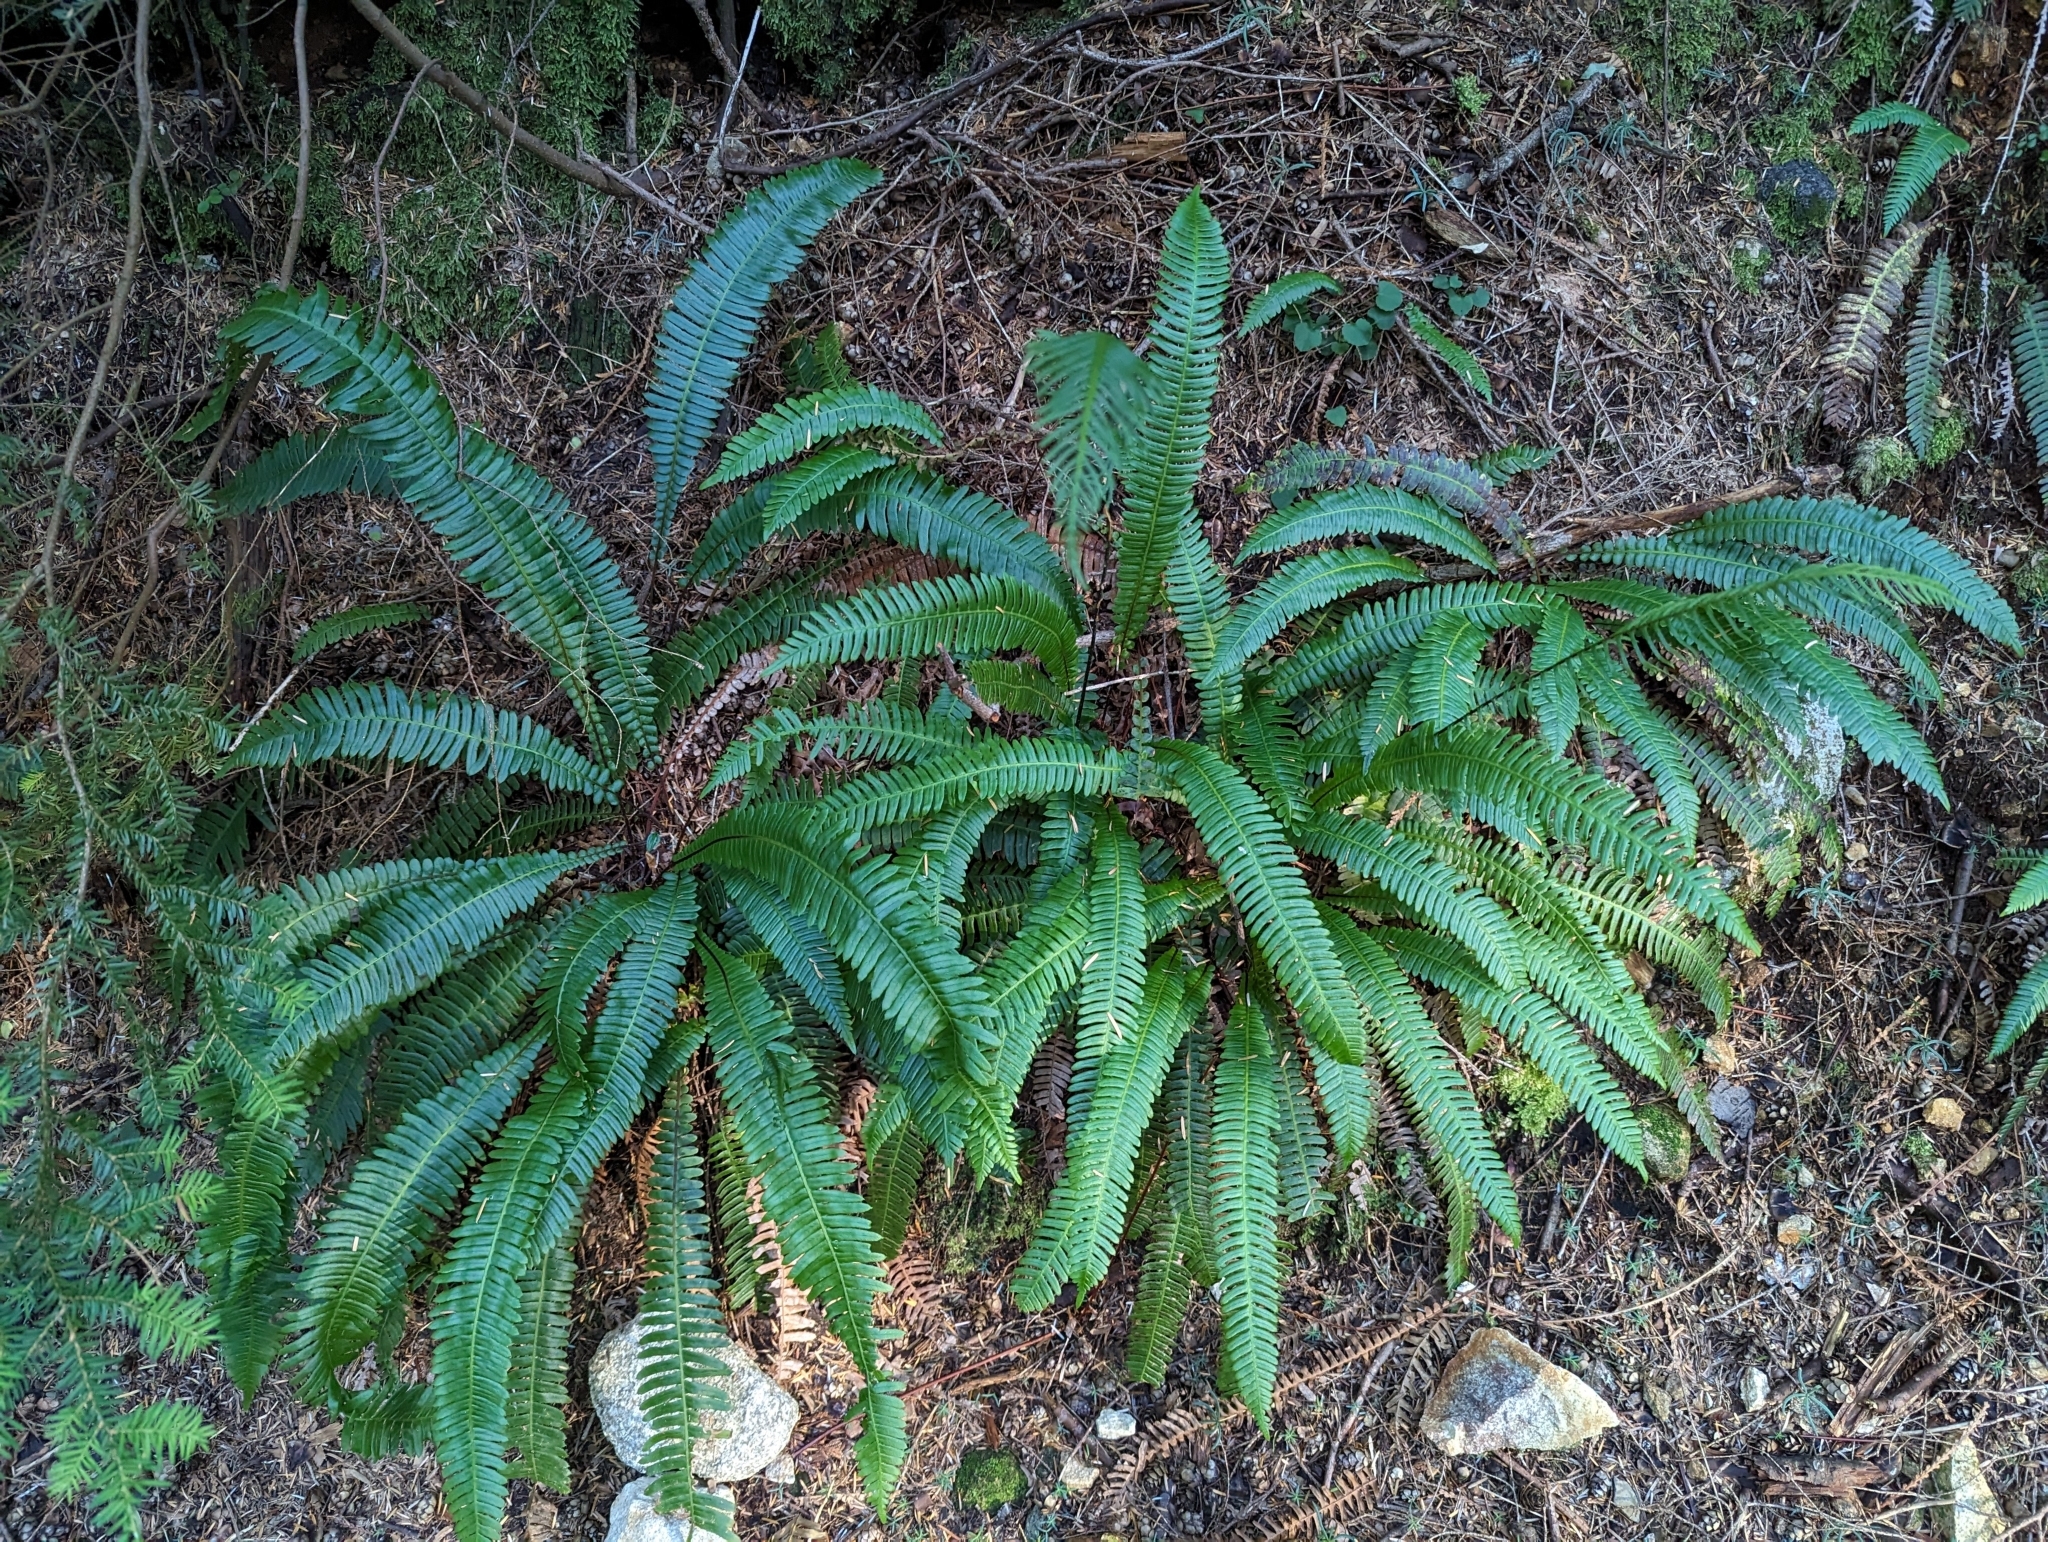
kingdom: Plantae
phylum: Tracheophyta
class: Polypodiopsida
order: Polypodiales
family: Blechnaceae
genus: Struthiopteris
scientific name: Struthiopteris spicant
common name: Deer fern
